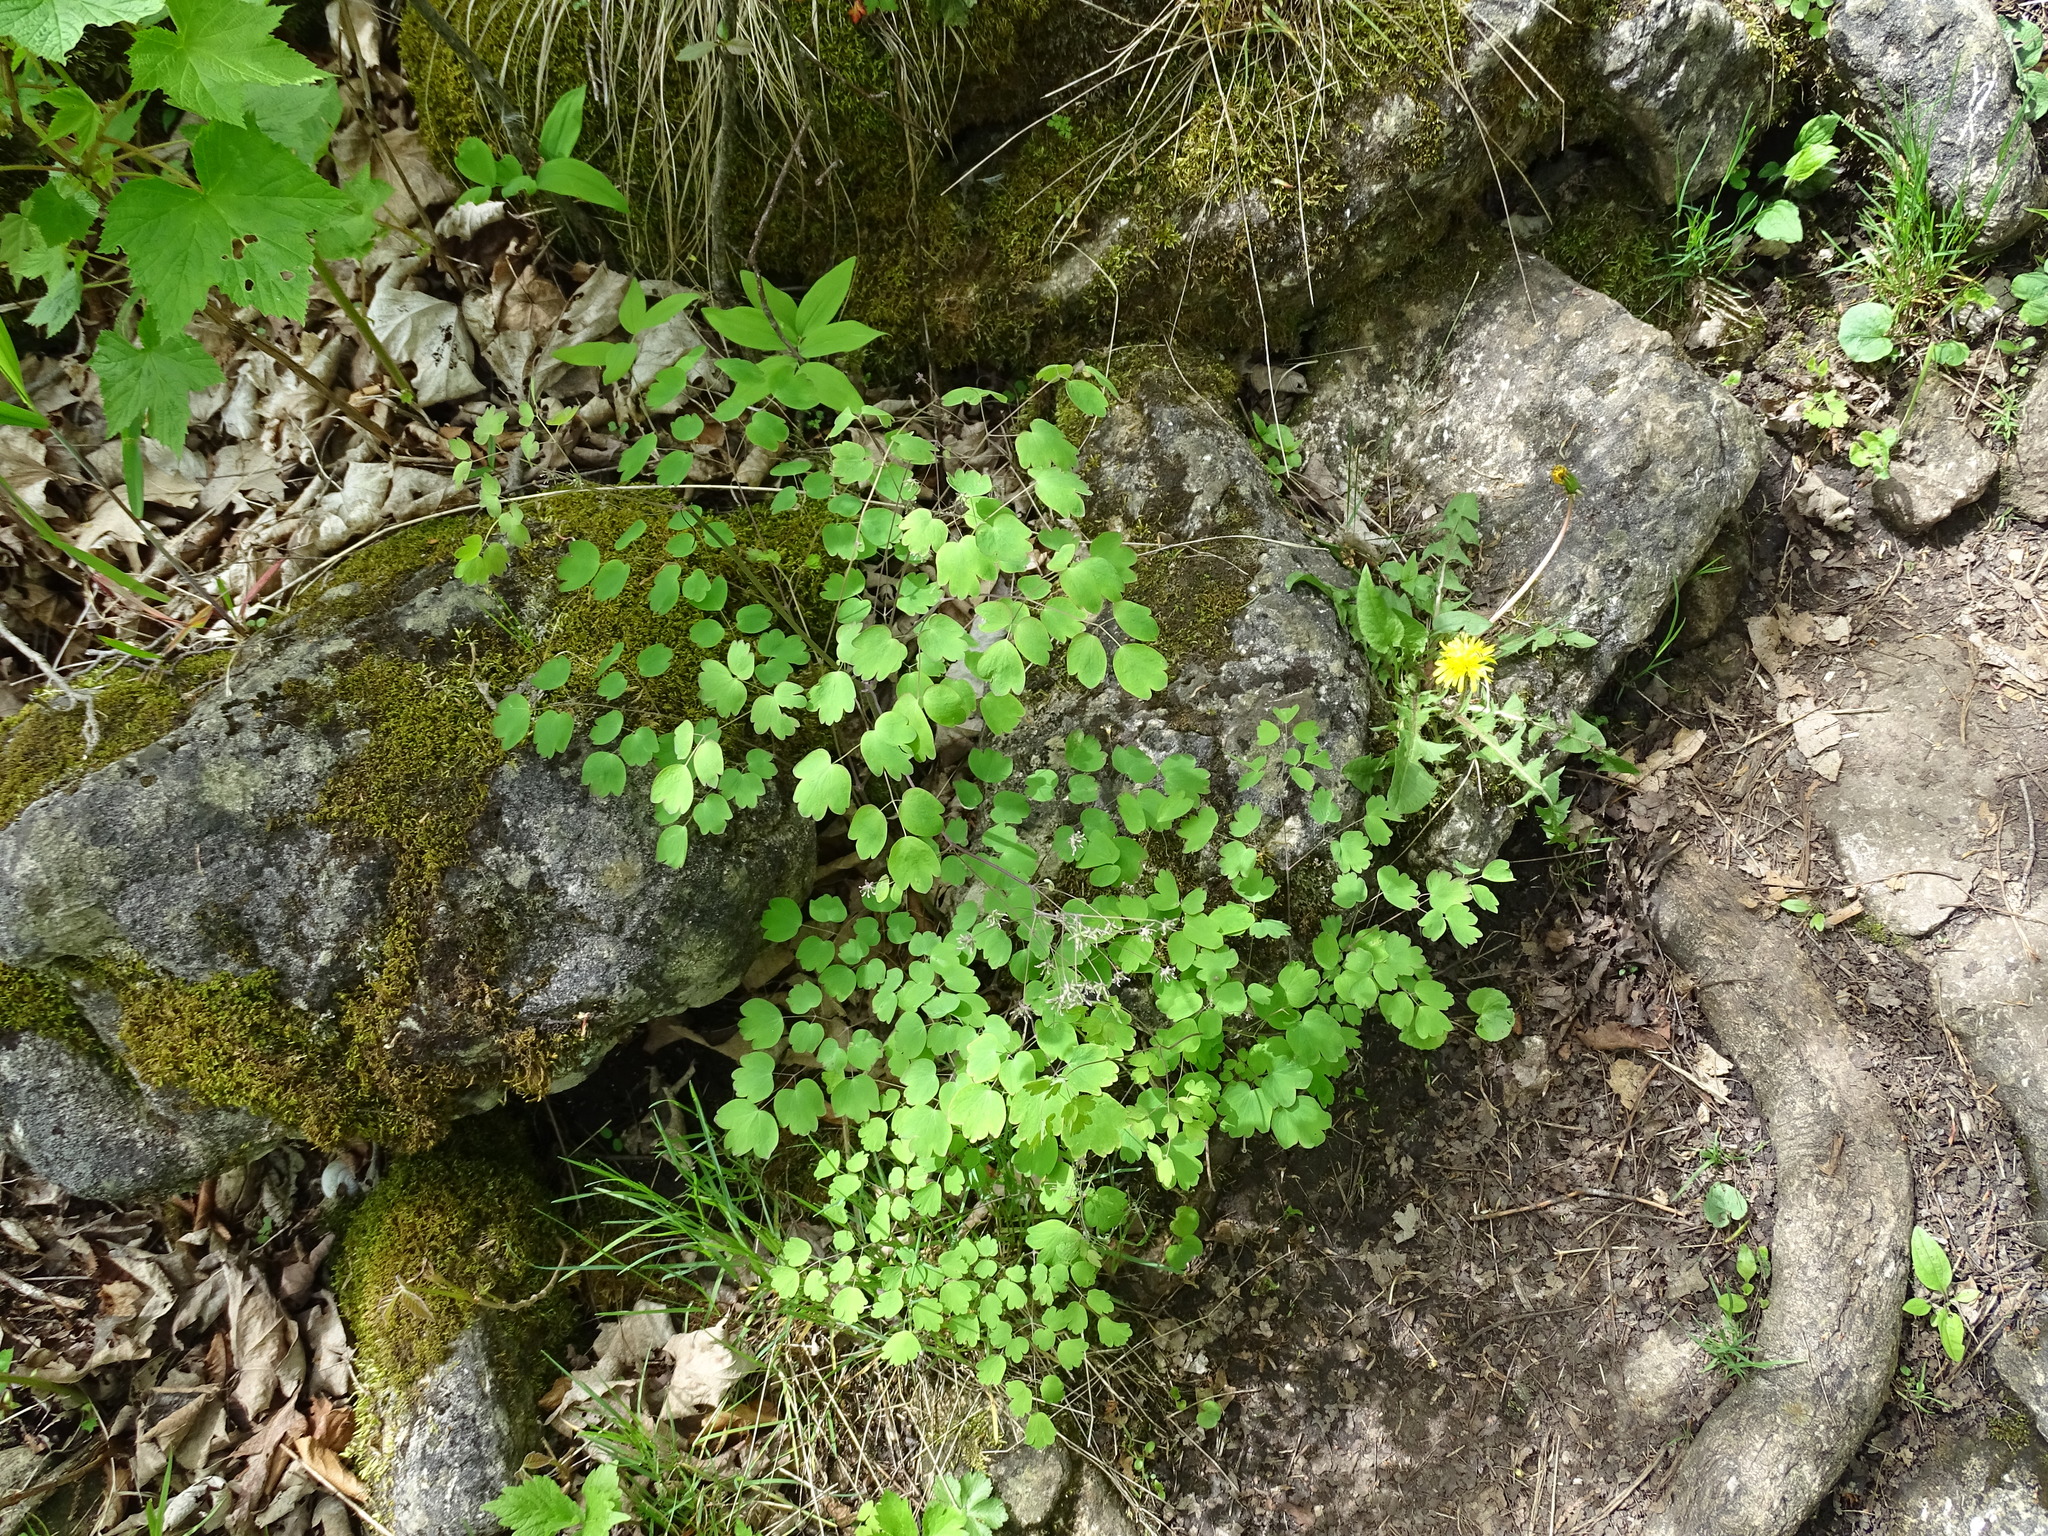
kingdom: Plantae
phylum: Tracheophyta
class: Magnoliopsida
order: Ranunculales
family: Ranunculaceae
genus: Thalictrum
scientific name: Thalictrum dioicum
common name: Early meadow-rue
